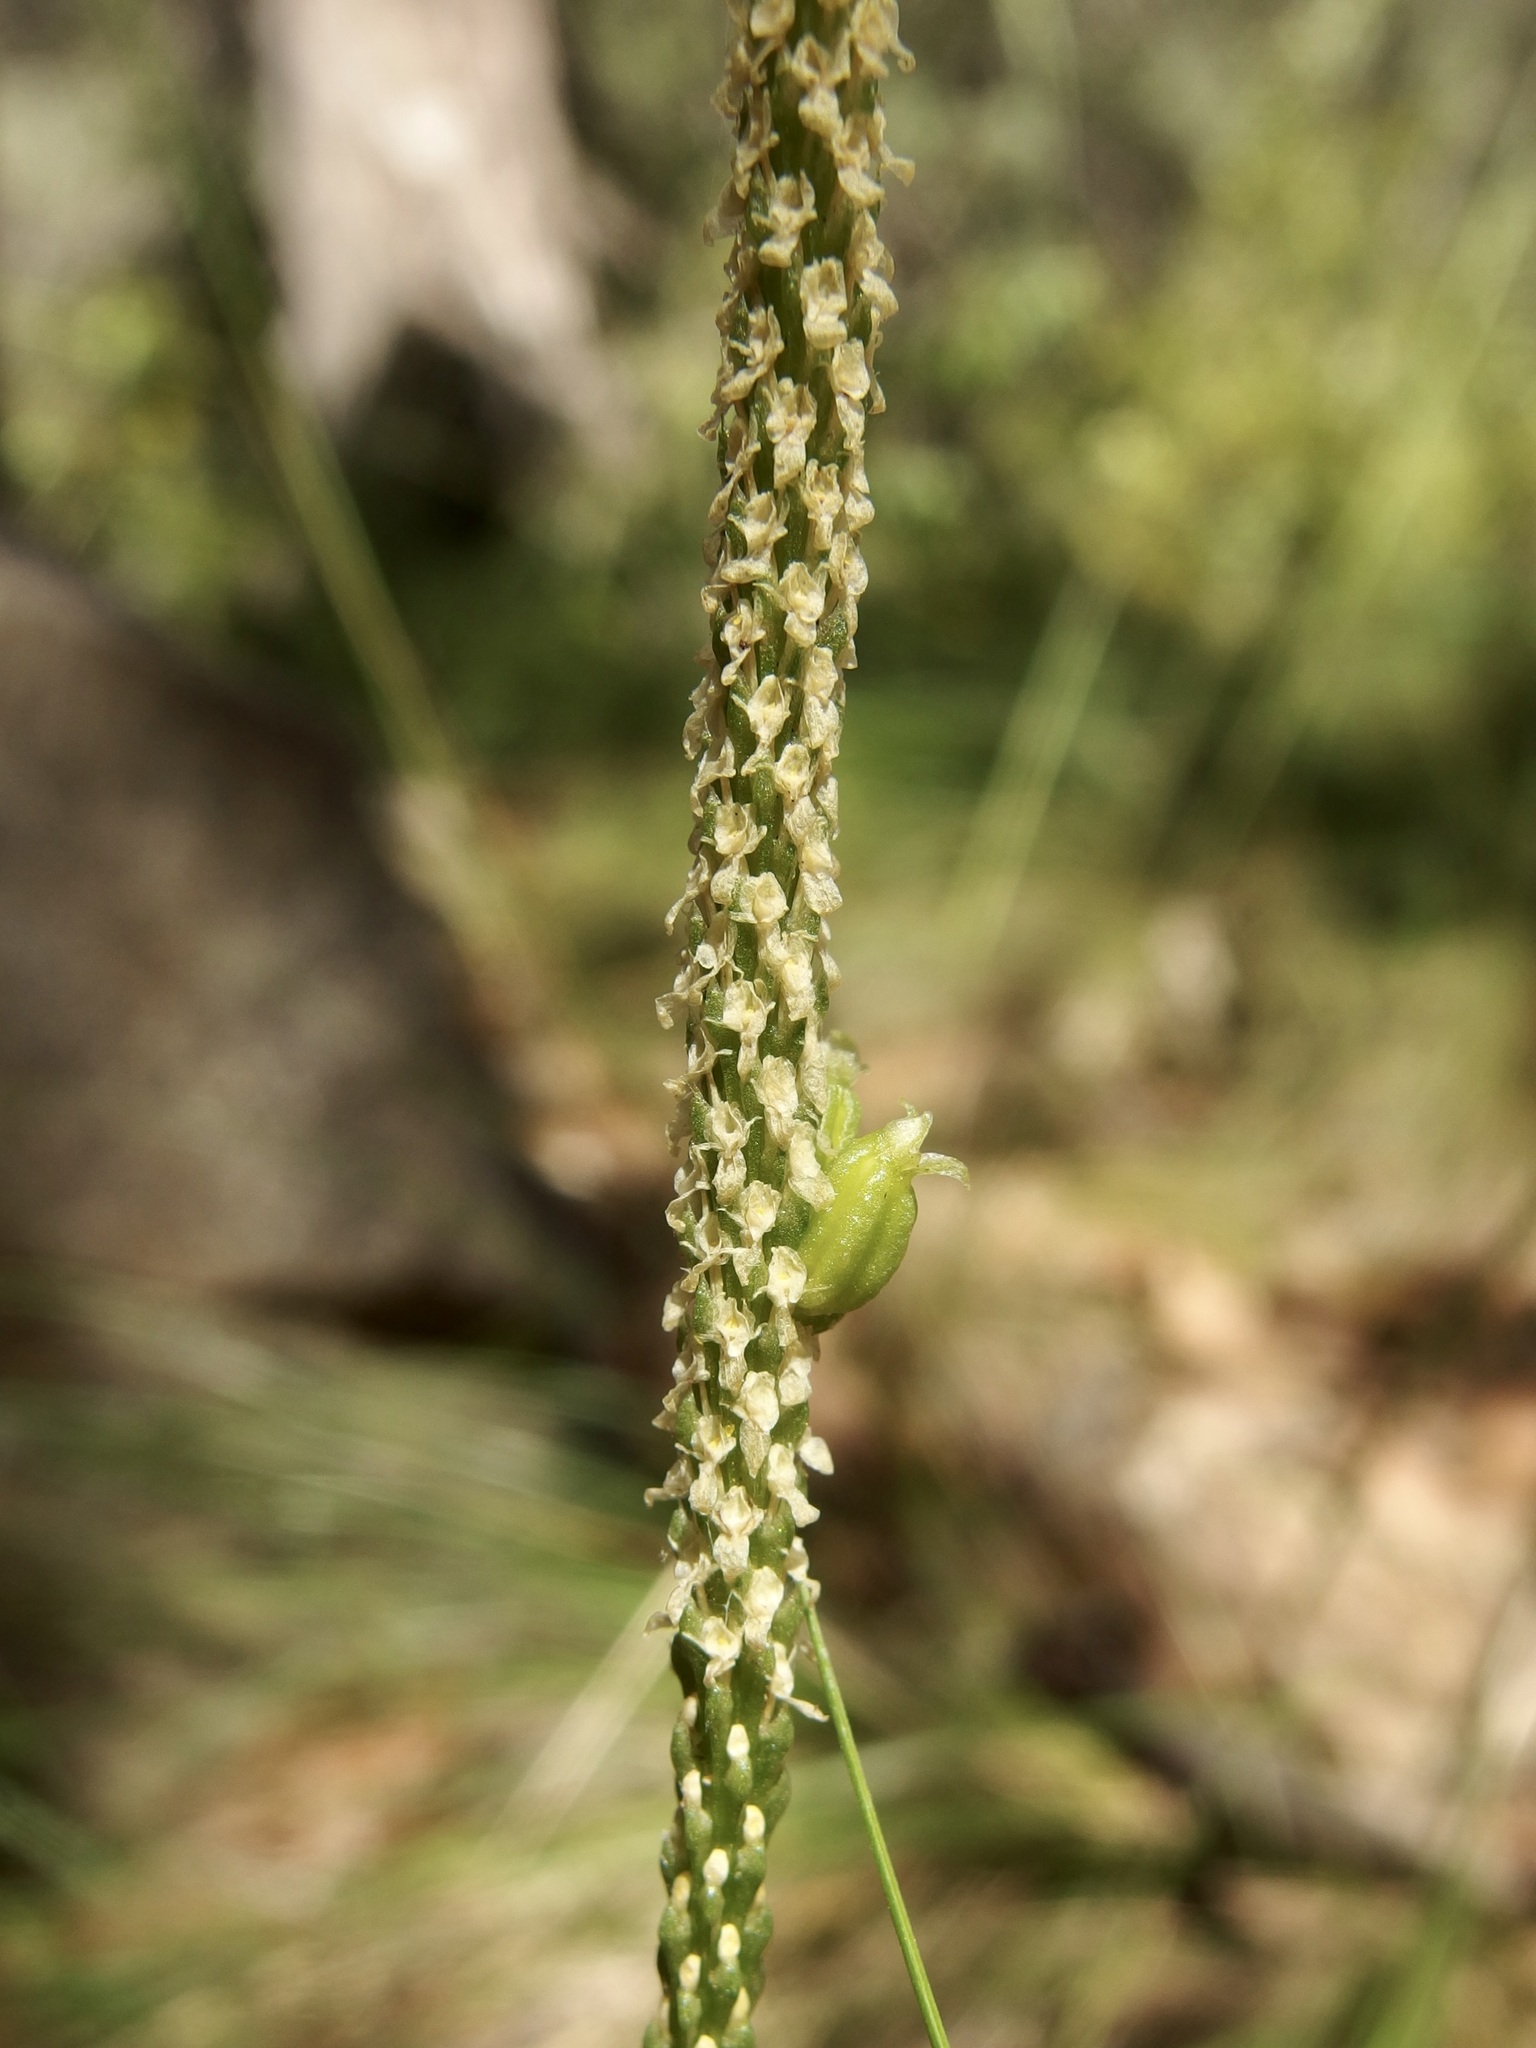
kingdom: Plantae
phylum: Tracheophyta
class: Liliopsida
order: Asparagales
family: Orchidaceae
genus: Malaxis
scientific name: Malaxis macrostachya
